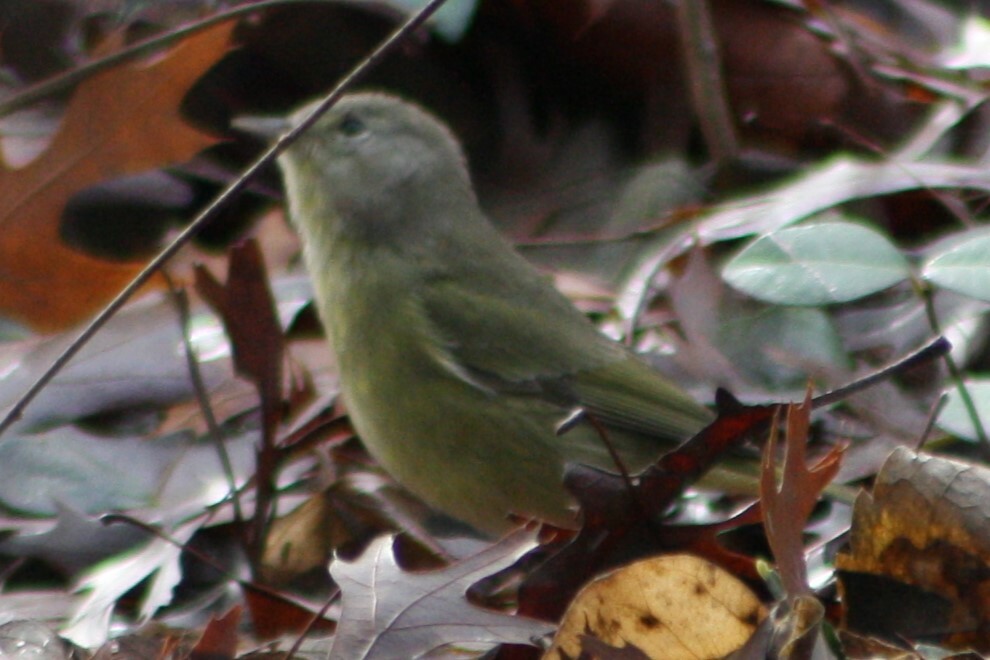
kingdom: Animalia
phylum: Chordata
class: Aves
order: Passeriformes
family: Parulidae
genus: Leiothlypis
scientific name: Leiothlypis celata
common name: Orange-crowned warbler
